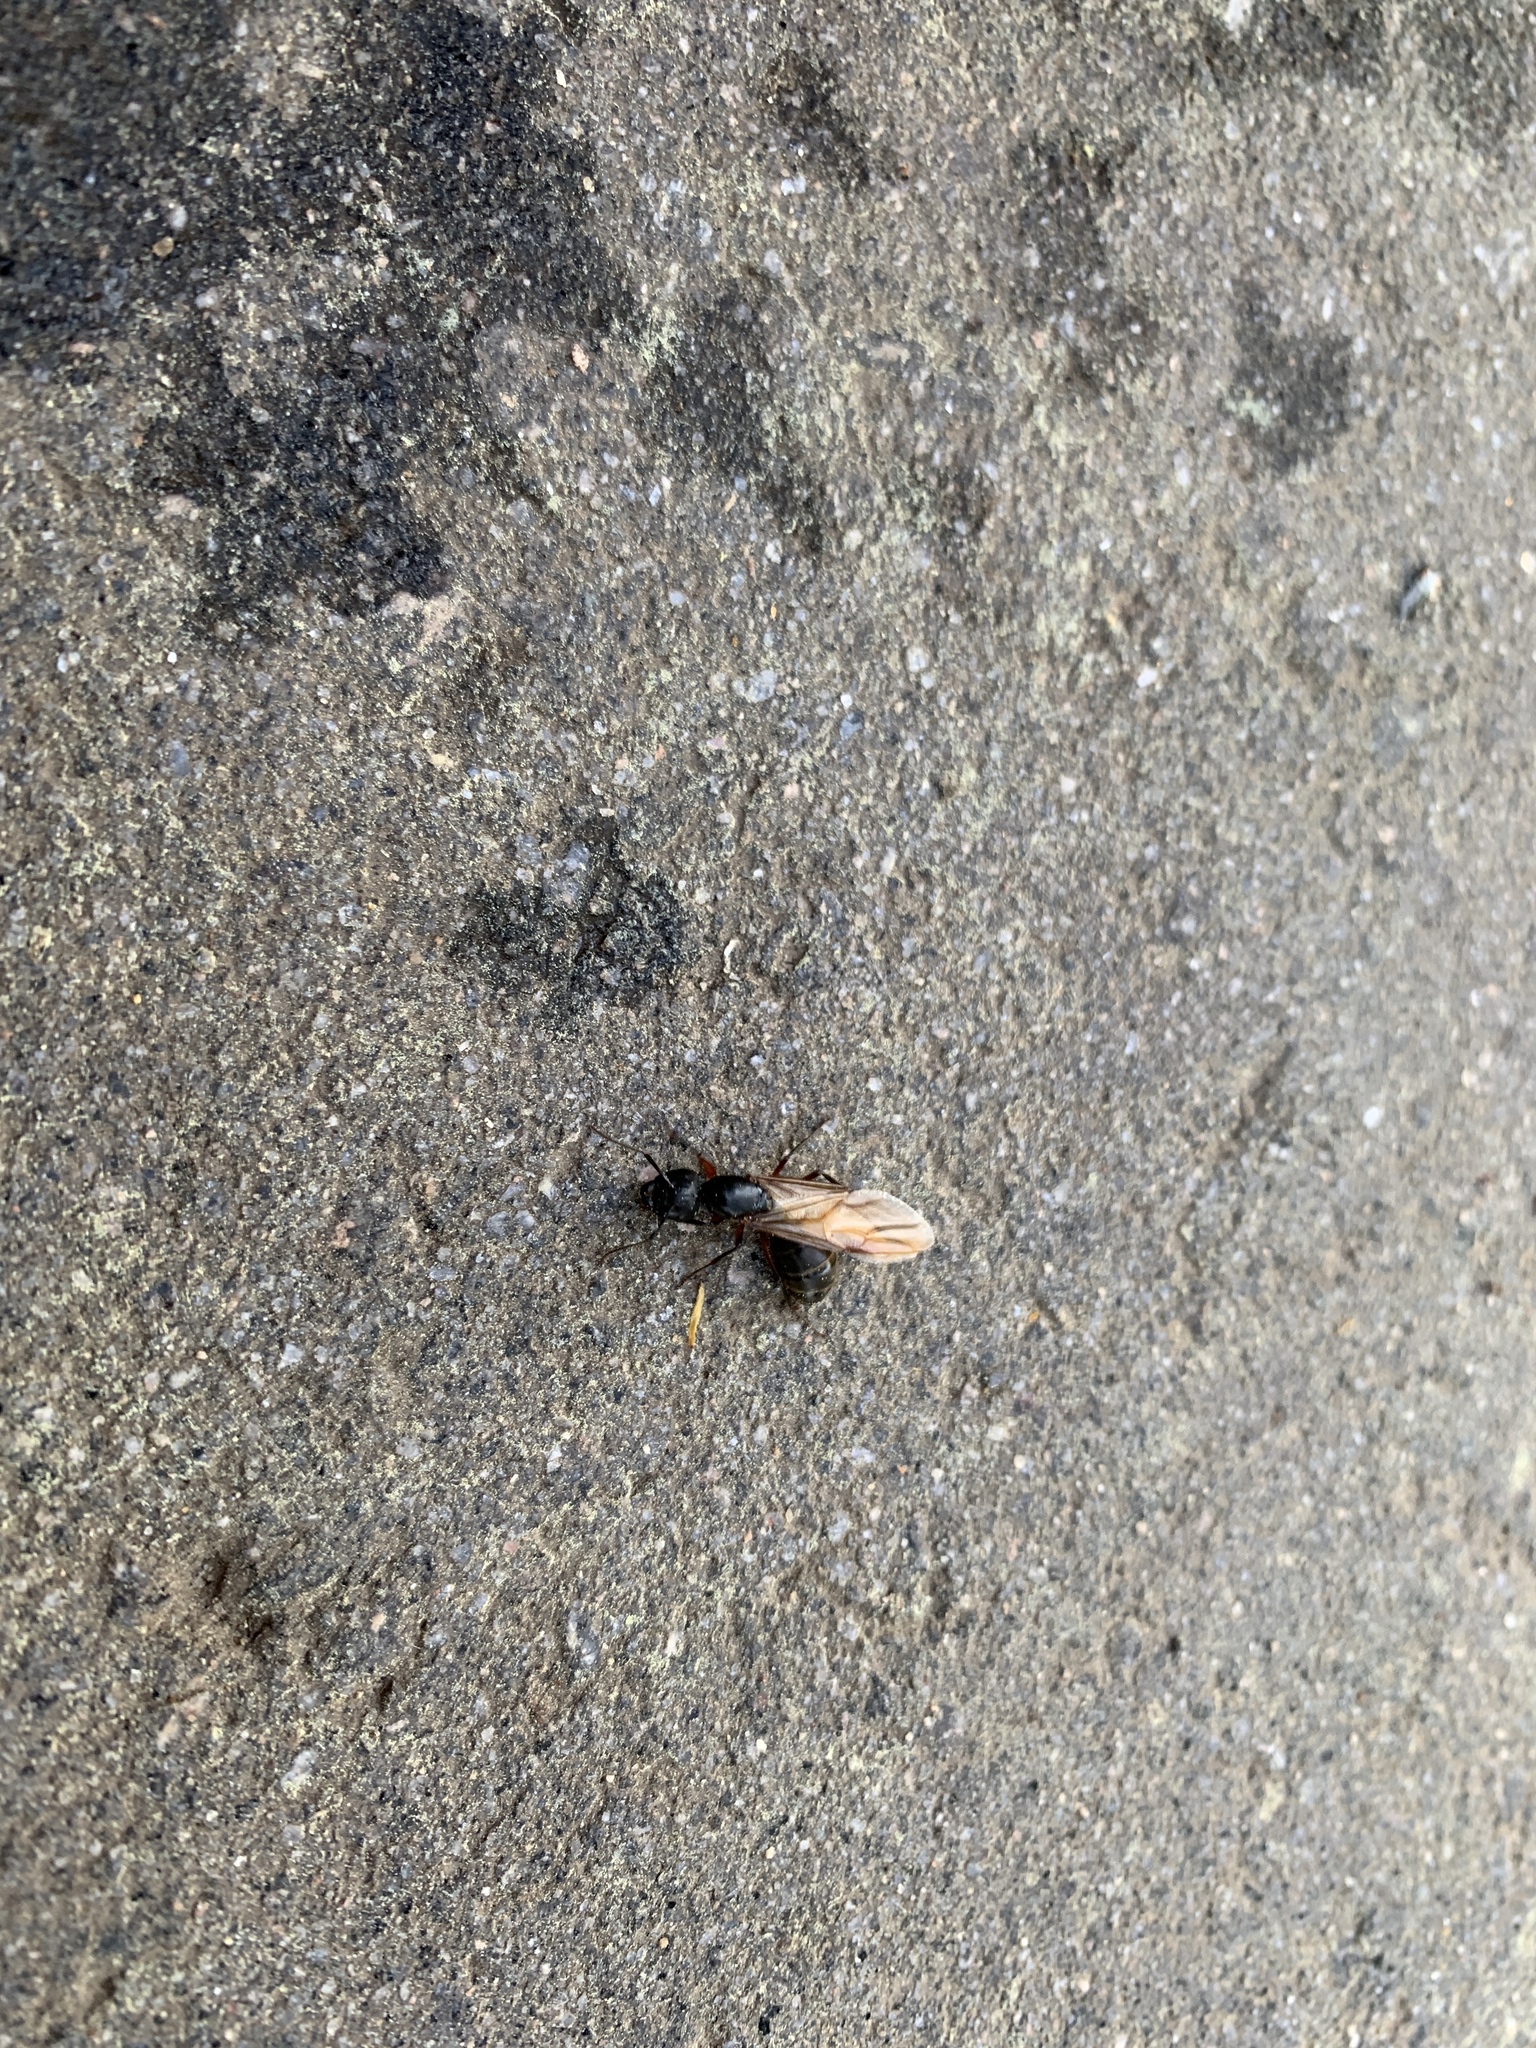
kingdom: Animalia
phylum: Arthropoda
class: Insecta
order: Hymenoptera
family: Formicidae
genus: Camponotus
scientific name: Camponotus pennsylvanicus
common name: Black carpenter ant
